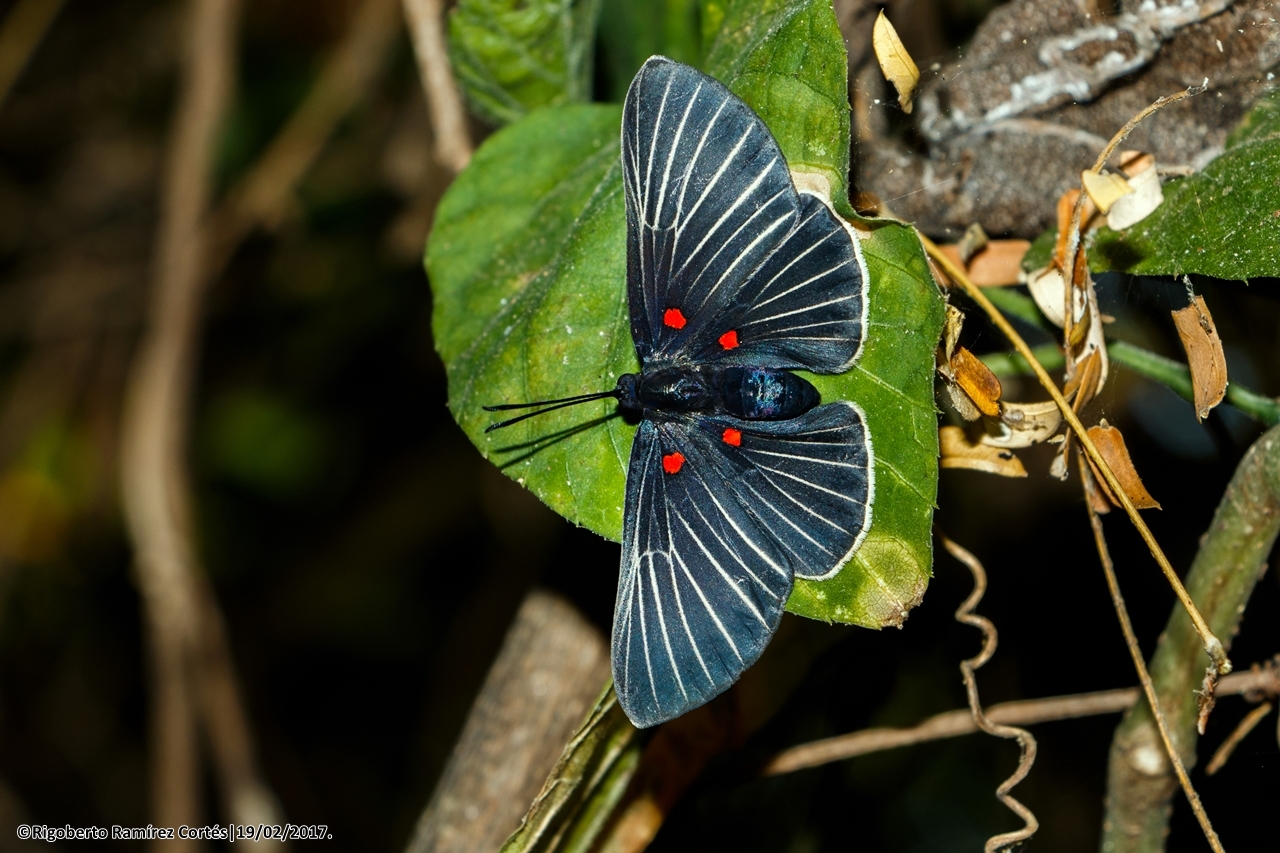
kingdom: Animalia
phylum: Arthropoda
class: Insecta
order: Lepidoptera
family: Lycaenidae
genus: Melanis
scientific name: Melanis
